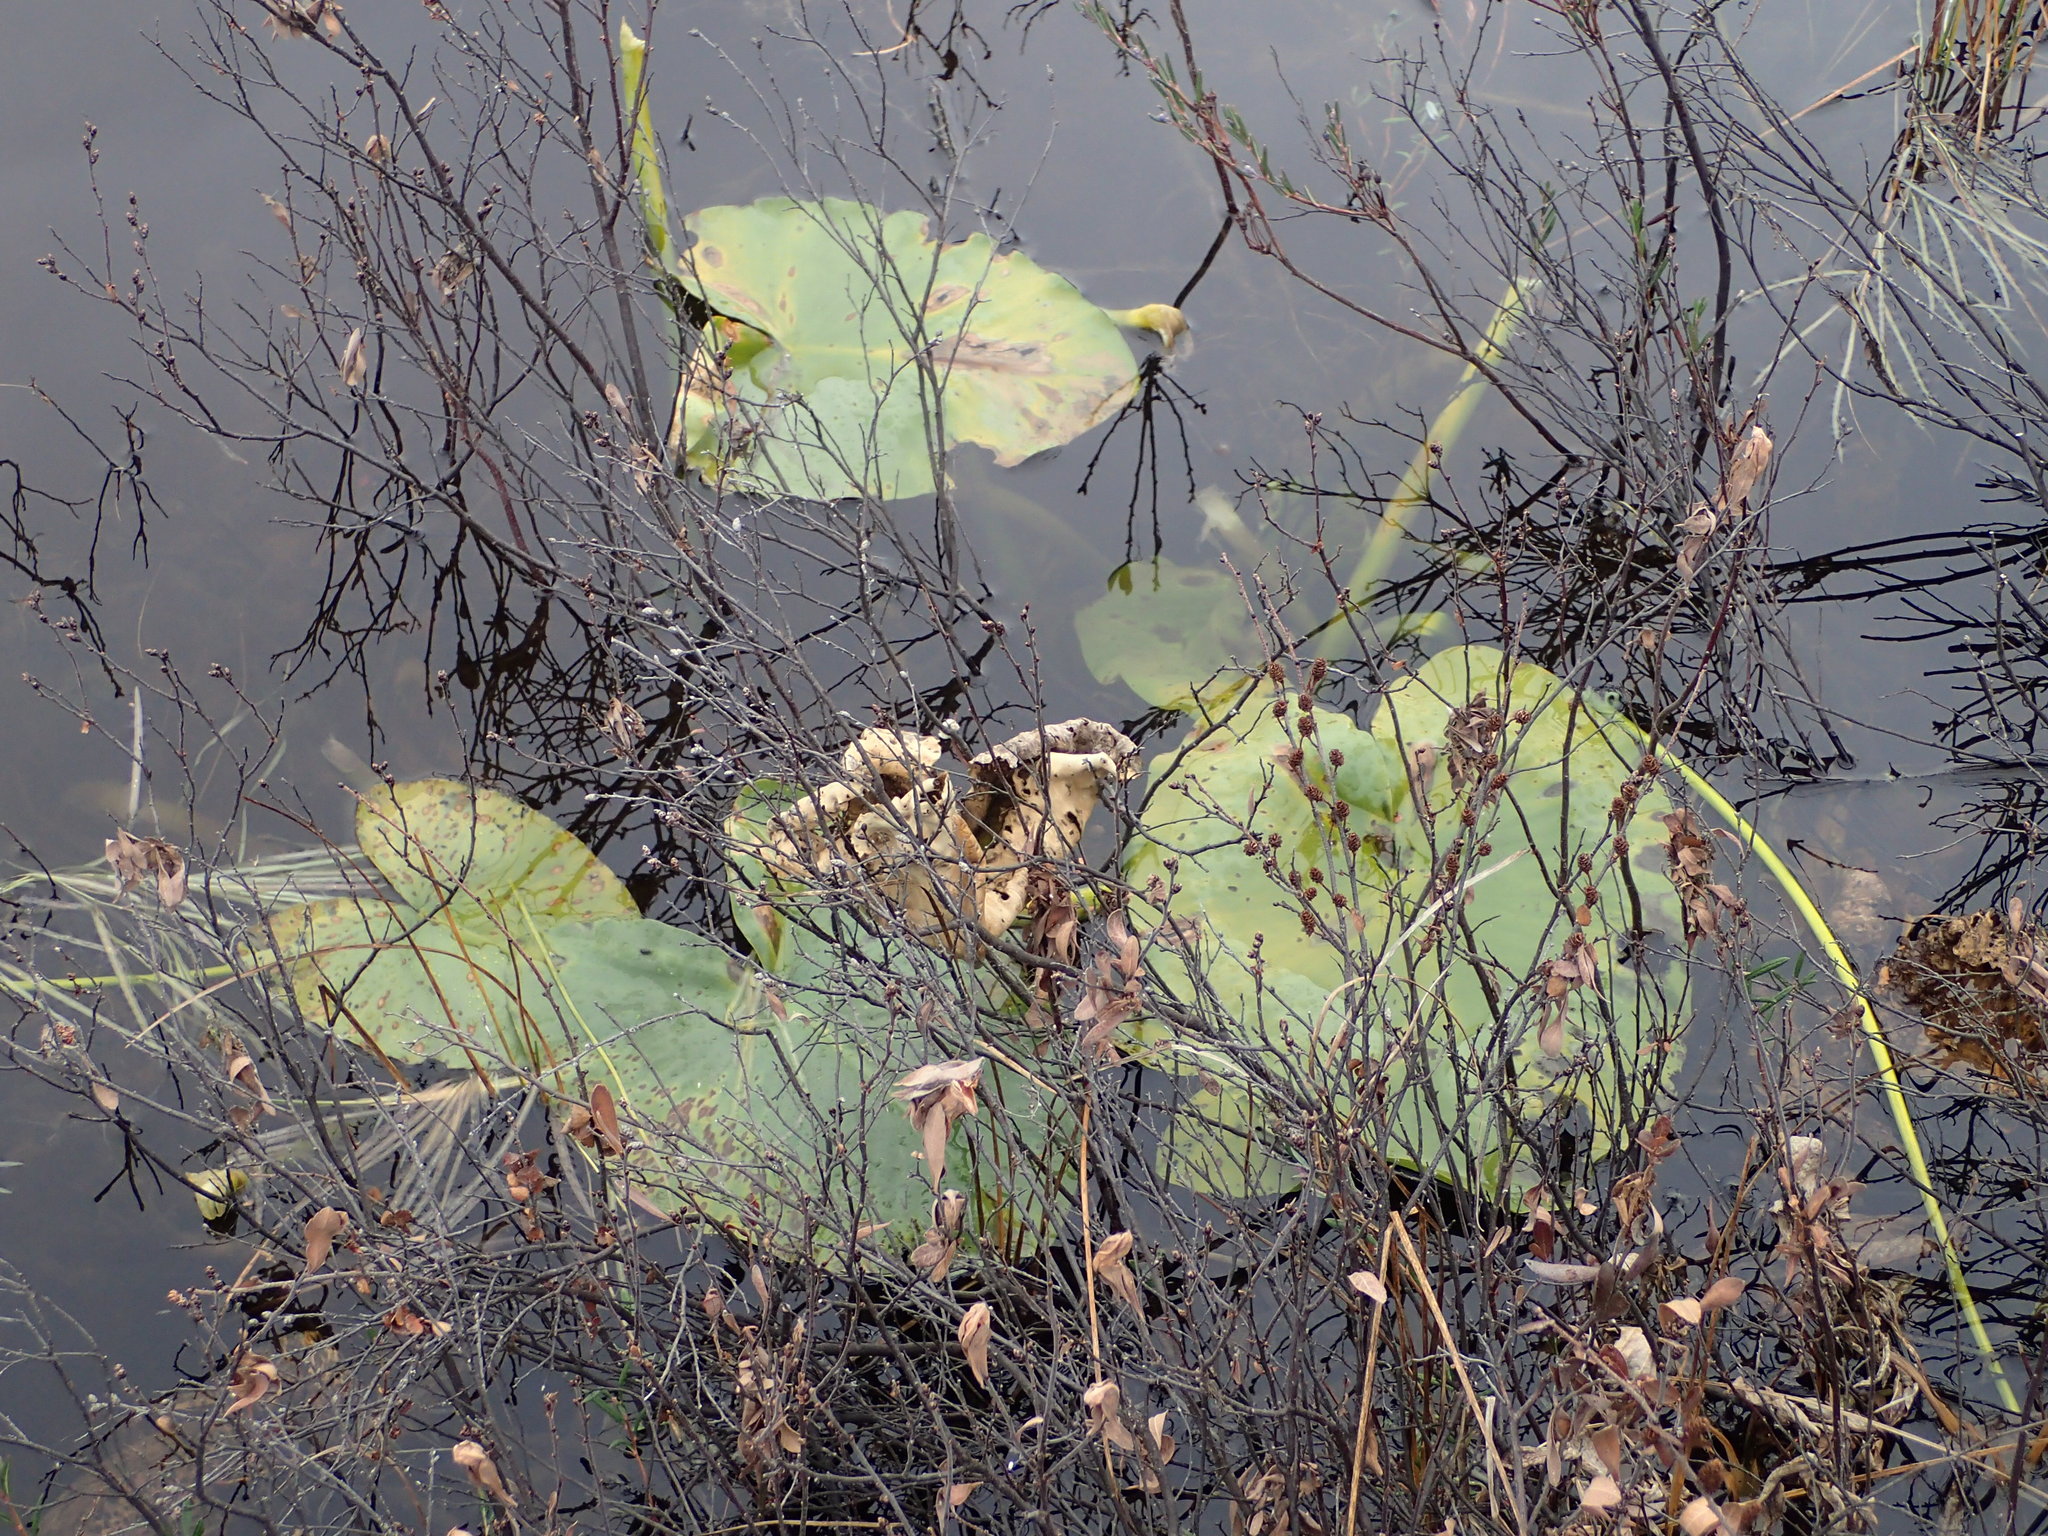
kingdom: Plantae
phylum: Tracheophyta
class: Magnoliopsida
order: Nymphaeales
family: Nymphaeaceae
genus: Nuphar
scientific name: Nuphar polysepala
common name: Rocky mountain cow-lily
